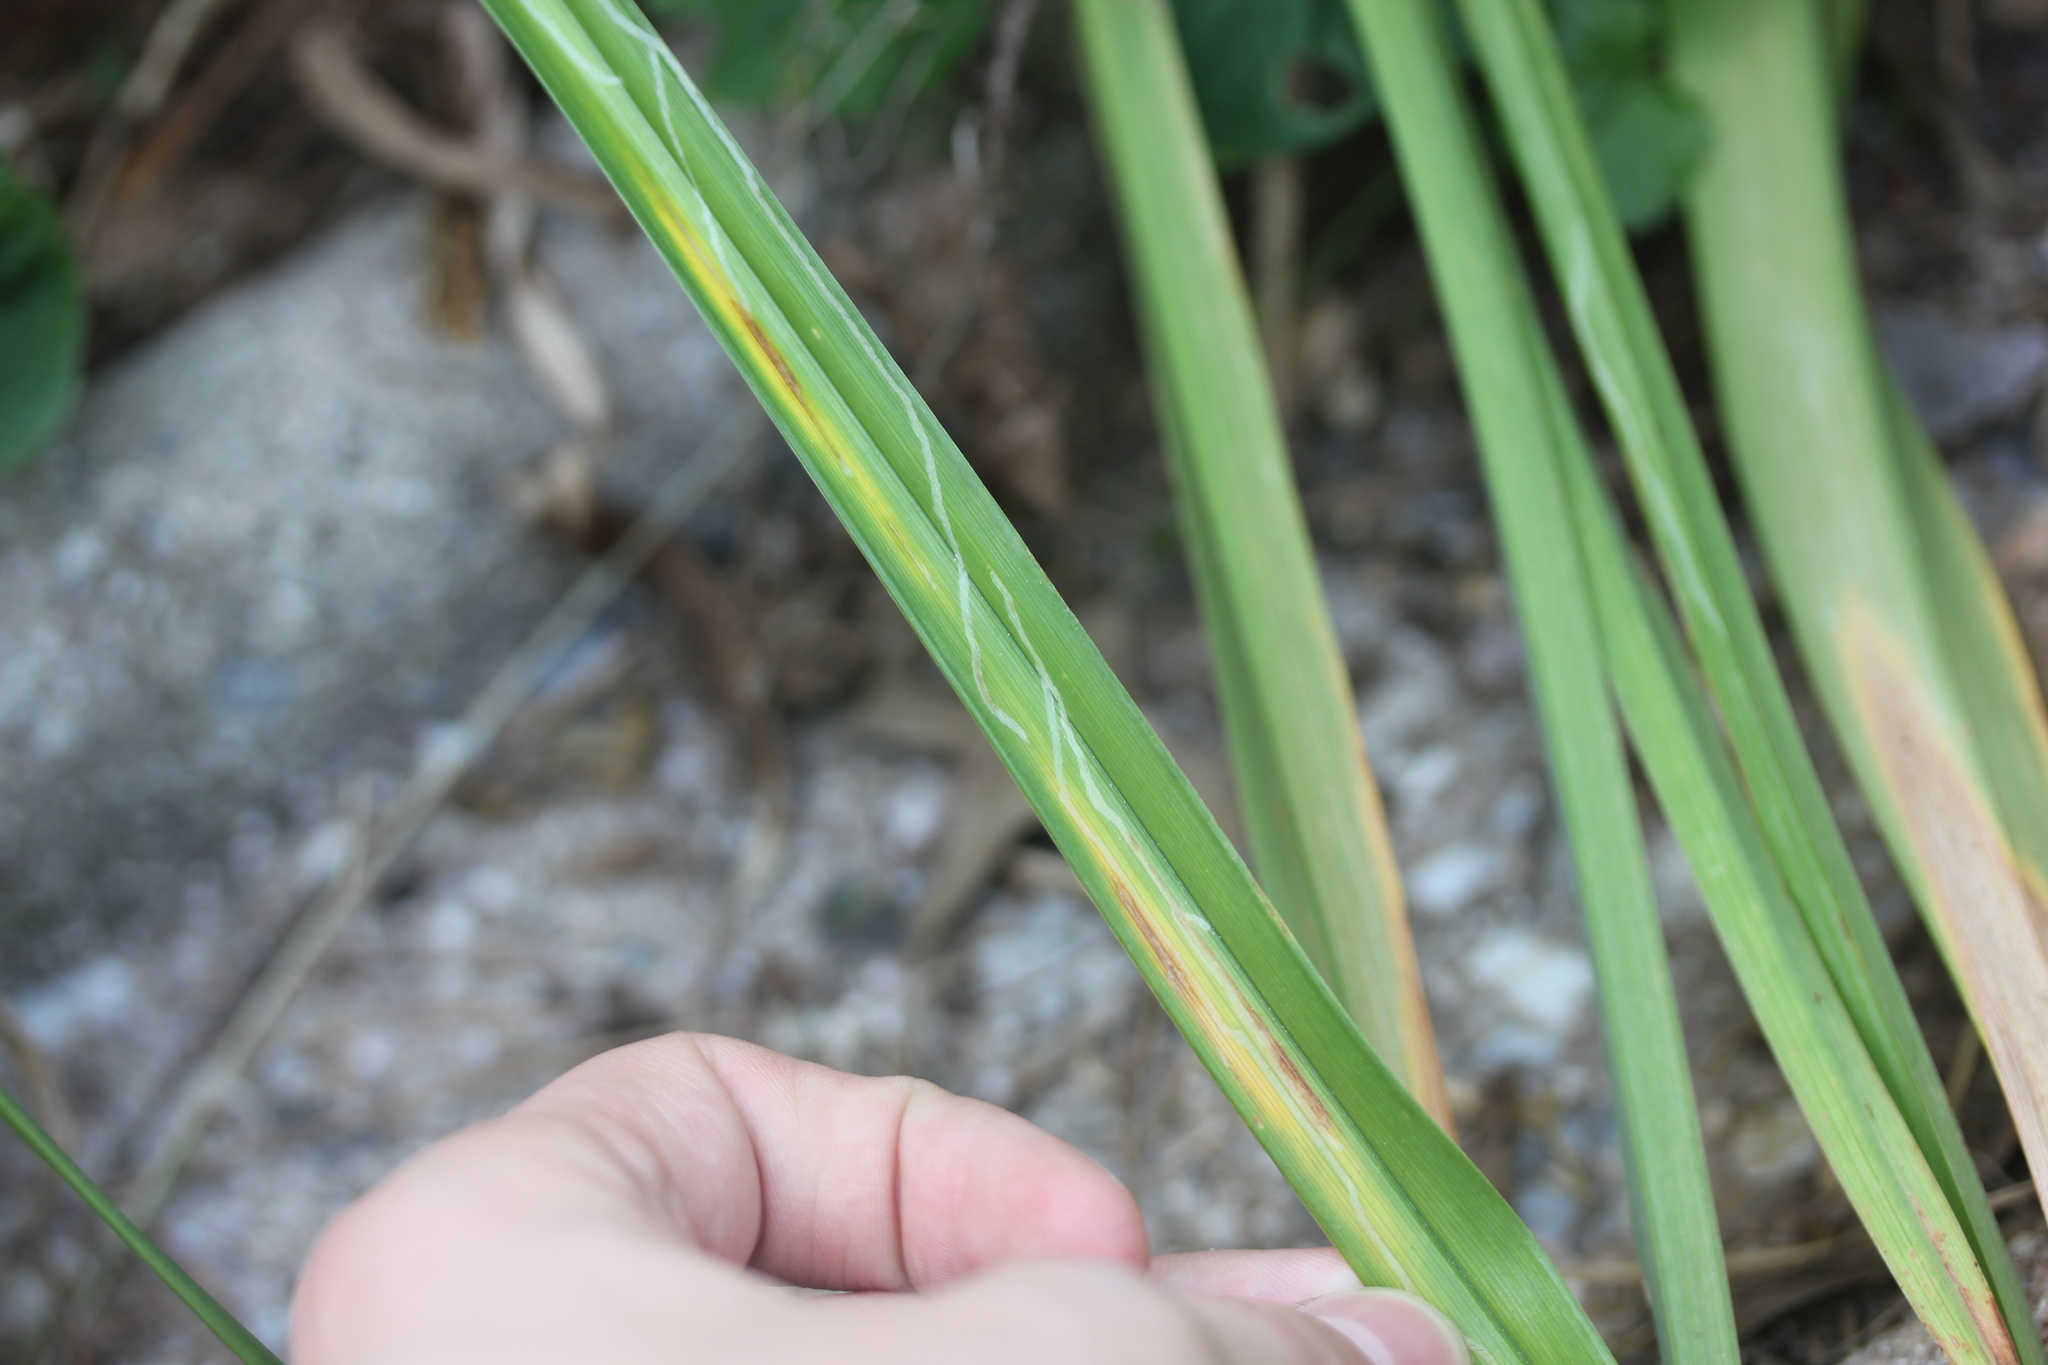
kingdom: Animalia
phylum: Arthropoda
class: Insecta
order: Diptera
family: Agromyzidae
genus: Ophiomyia
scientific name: Ophiomyia kwansonis
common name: Daylily leafminer
